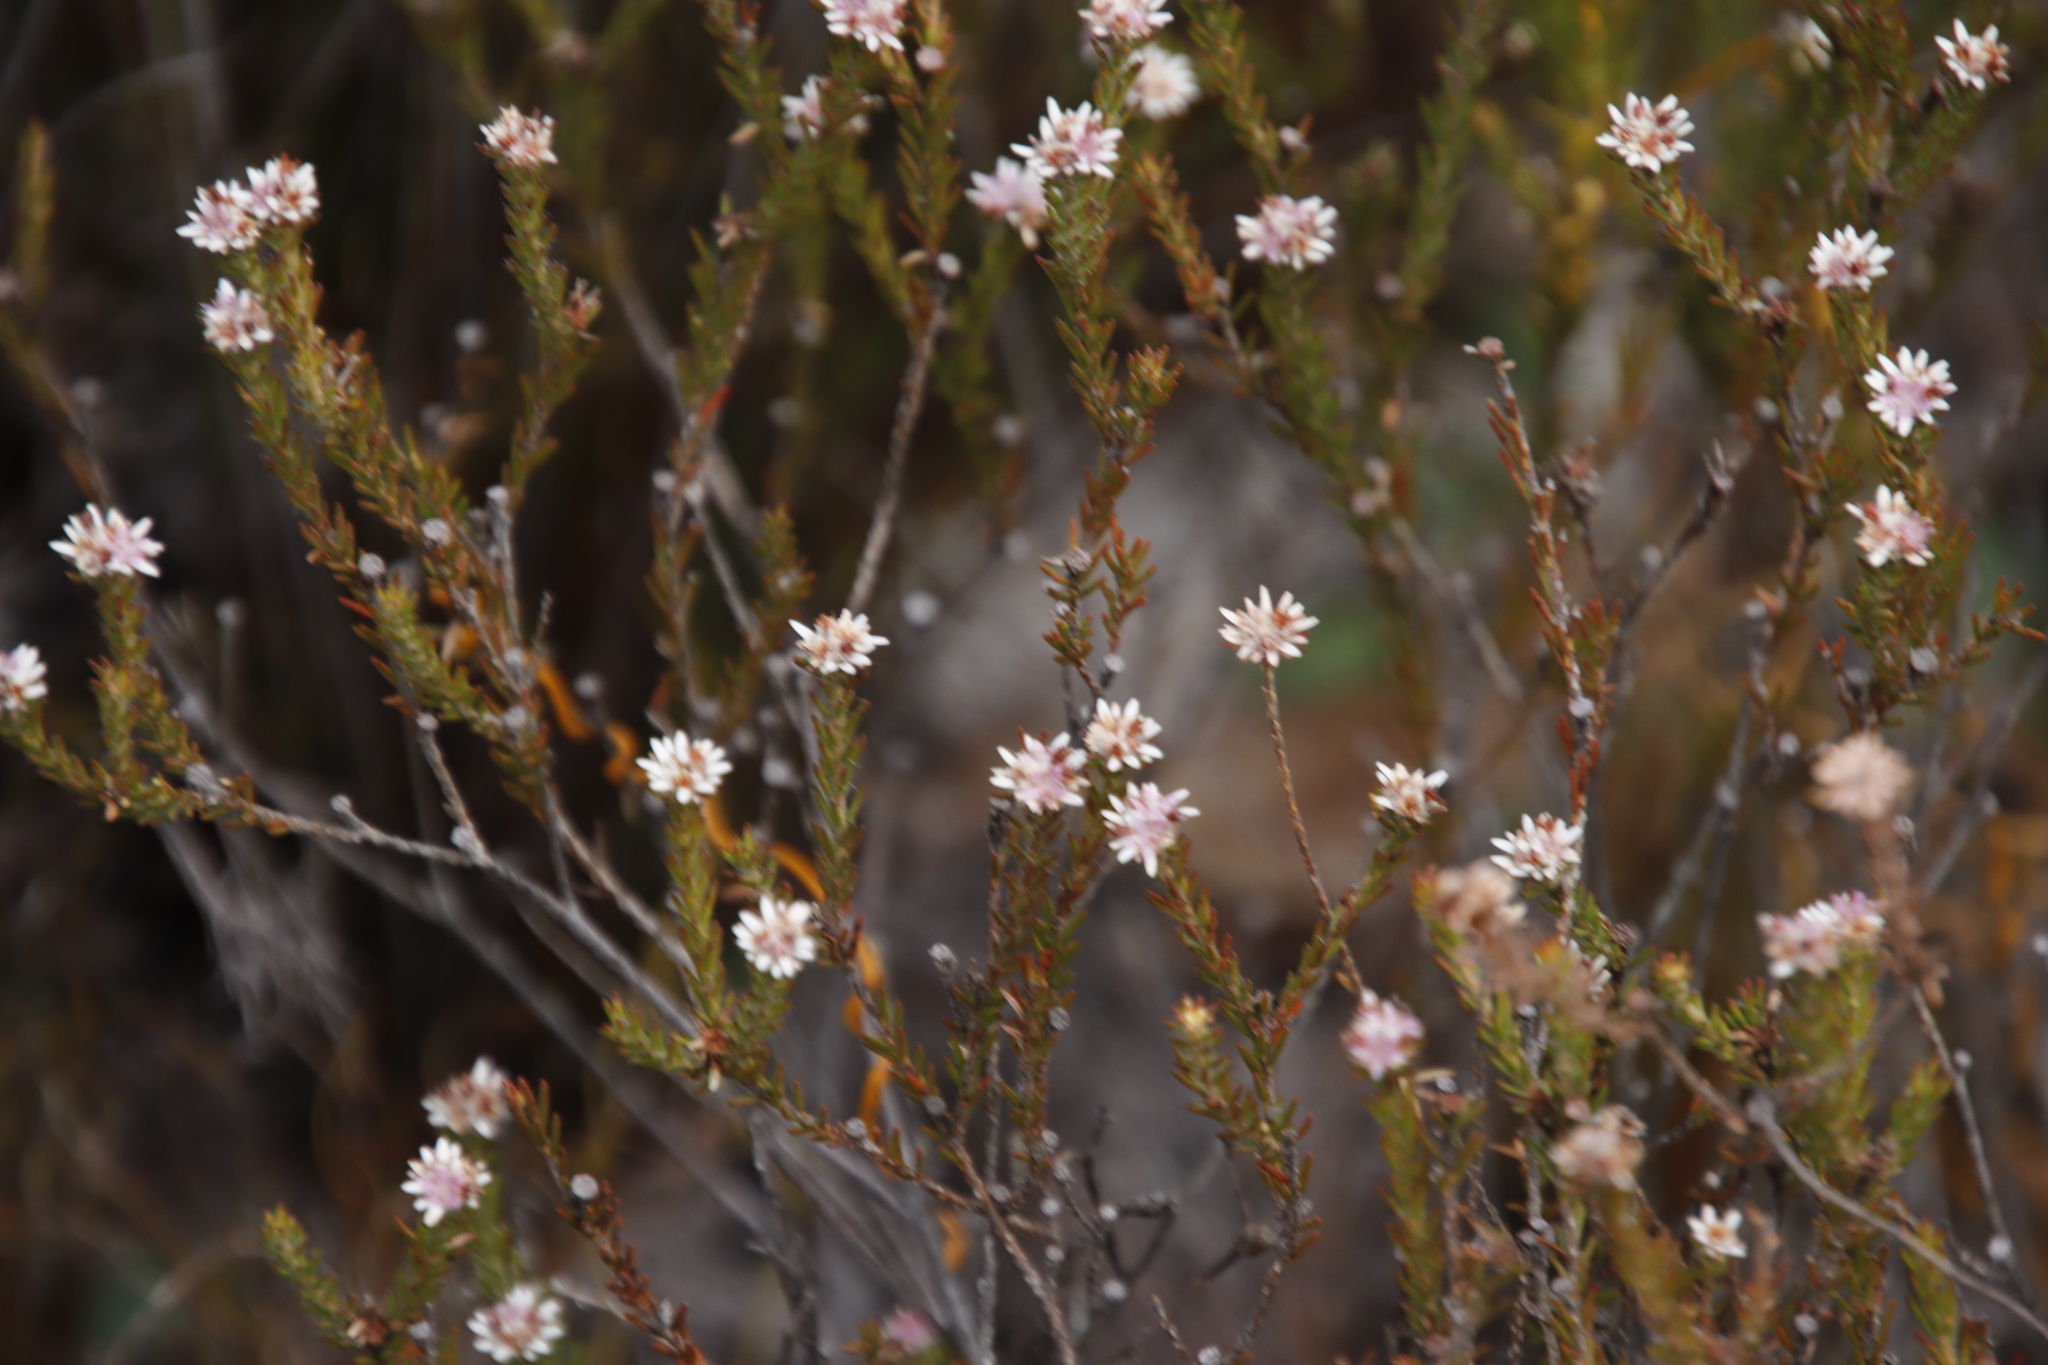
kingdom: Plantae
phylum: Tracheophyta
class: Magnoliopsida
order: Bruniales
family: Bruniaceae
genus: Staavia
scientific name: Staavia radiata
